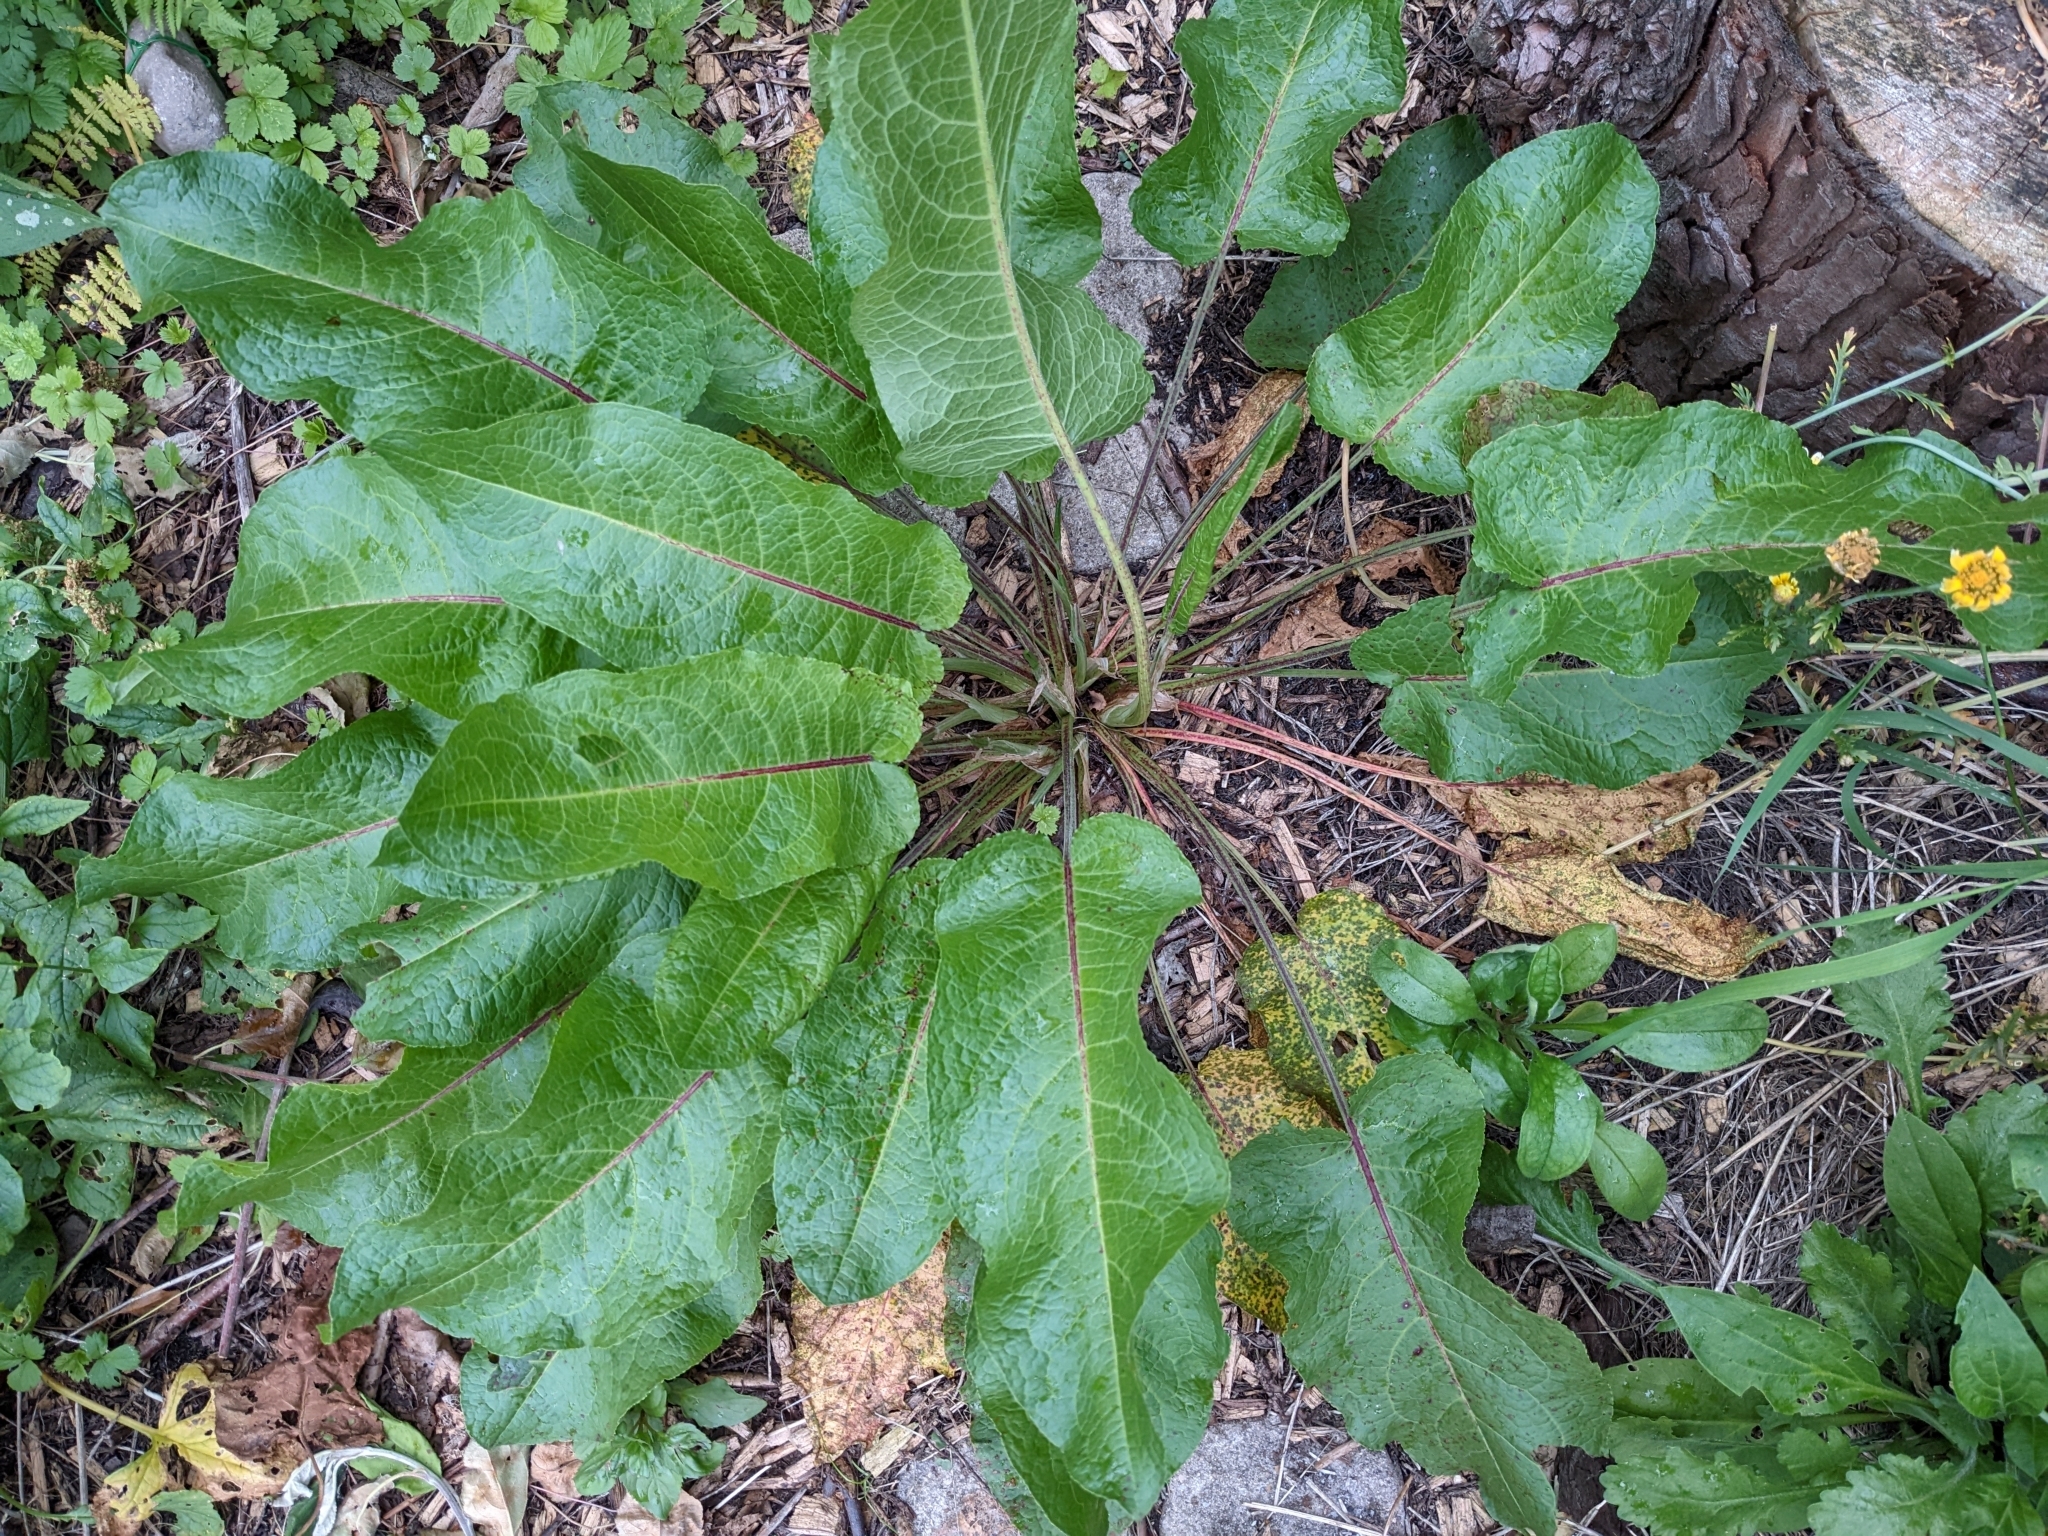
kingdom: Plantae
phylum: Tracheophyta
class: Magnoliopsida
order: Caryophyllales
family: Polygonaceae
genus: Rumex
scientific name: Rumex obtusifolius
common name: Bitter dock
